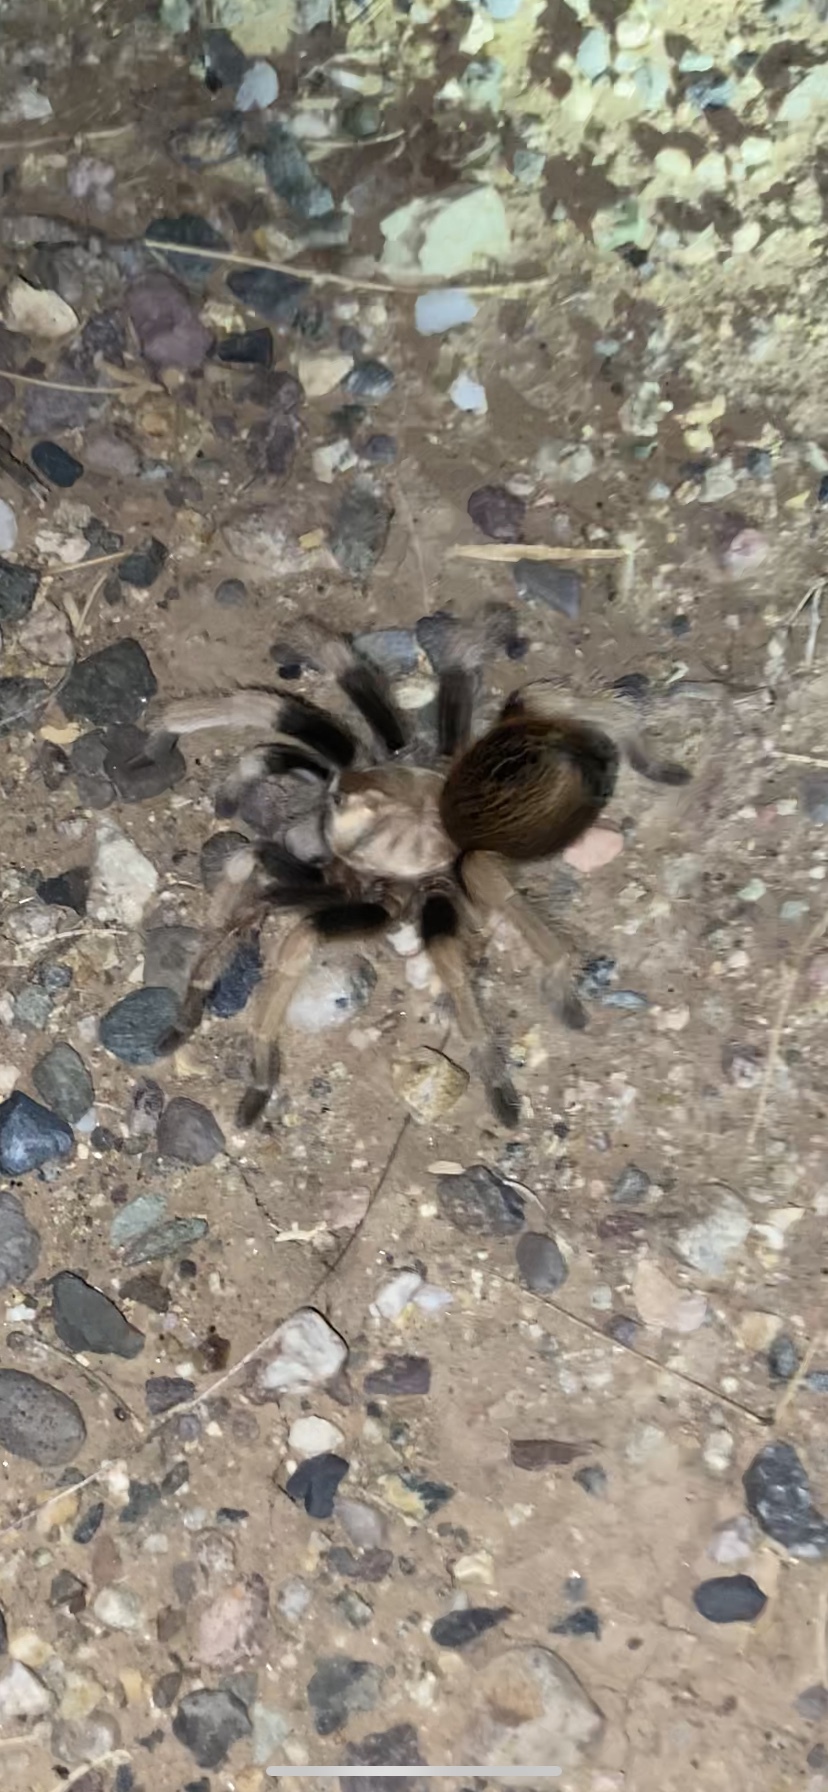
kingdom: Animalia
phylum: Arthropoda
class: Arachnida
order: Araneae
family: Theraphosidae
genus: Aphonopelma
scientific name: Aphonopelma chalcodes
